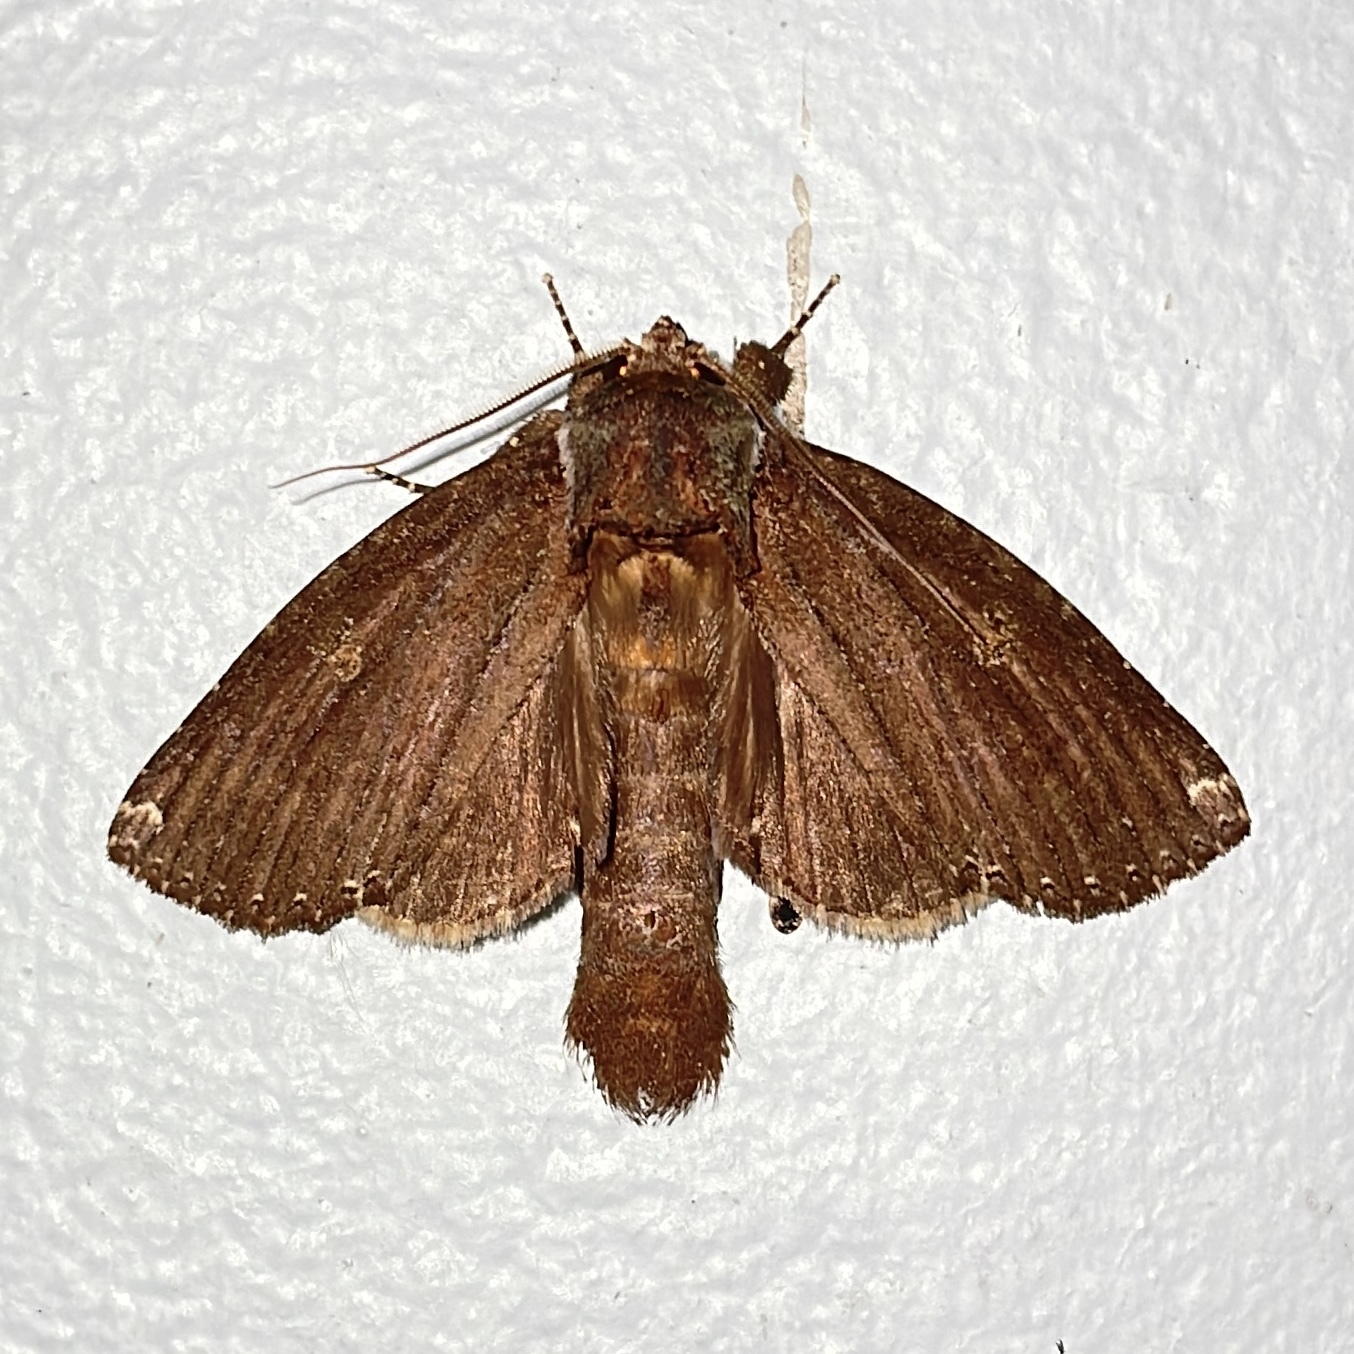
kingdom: Animalia
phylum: Arthropoda
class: Insecta
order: Lepidoptera
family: Notodontidae
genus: Rifargia
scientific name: Rifargia occulta
